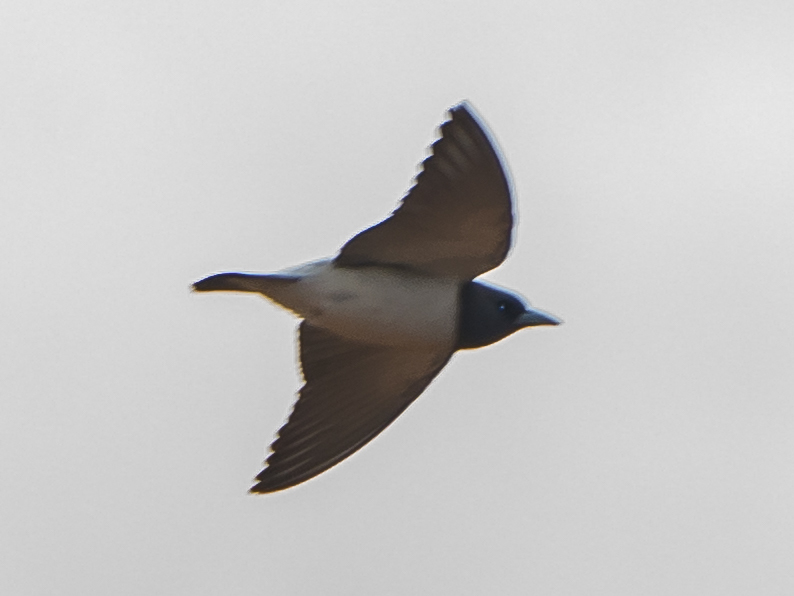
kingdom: Animalia
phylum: Chordata
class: Aves
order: Passeriformes
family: Artamidae
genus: Artamus
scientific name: Artamus leucoryn
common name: White-breasted woodswallow
